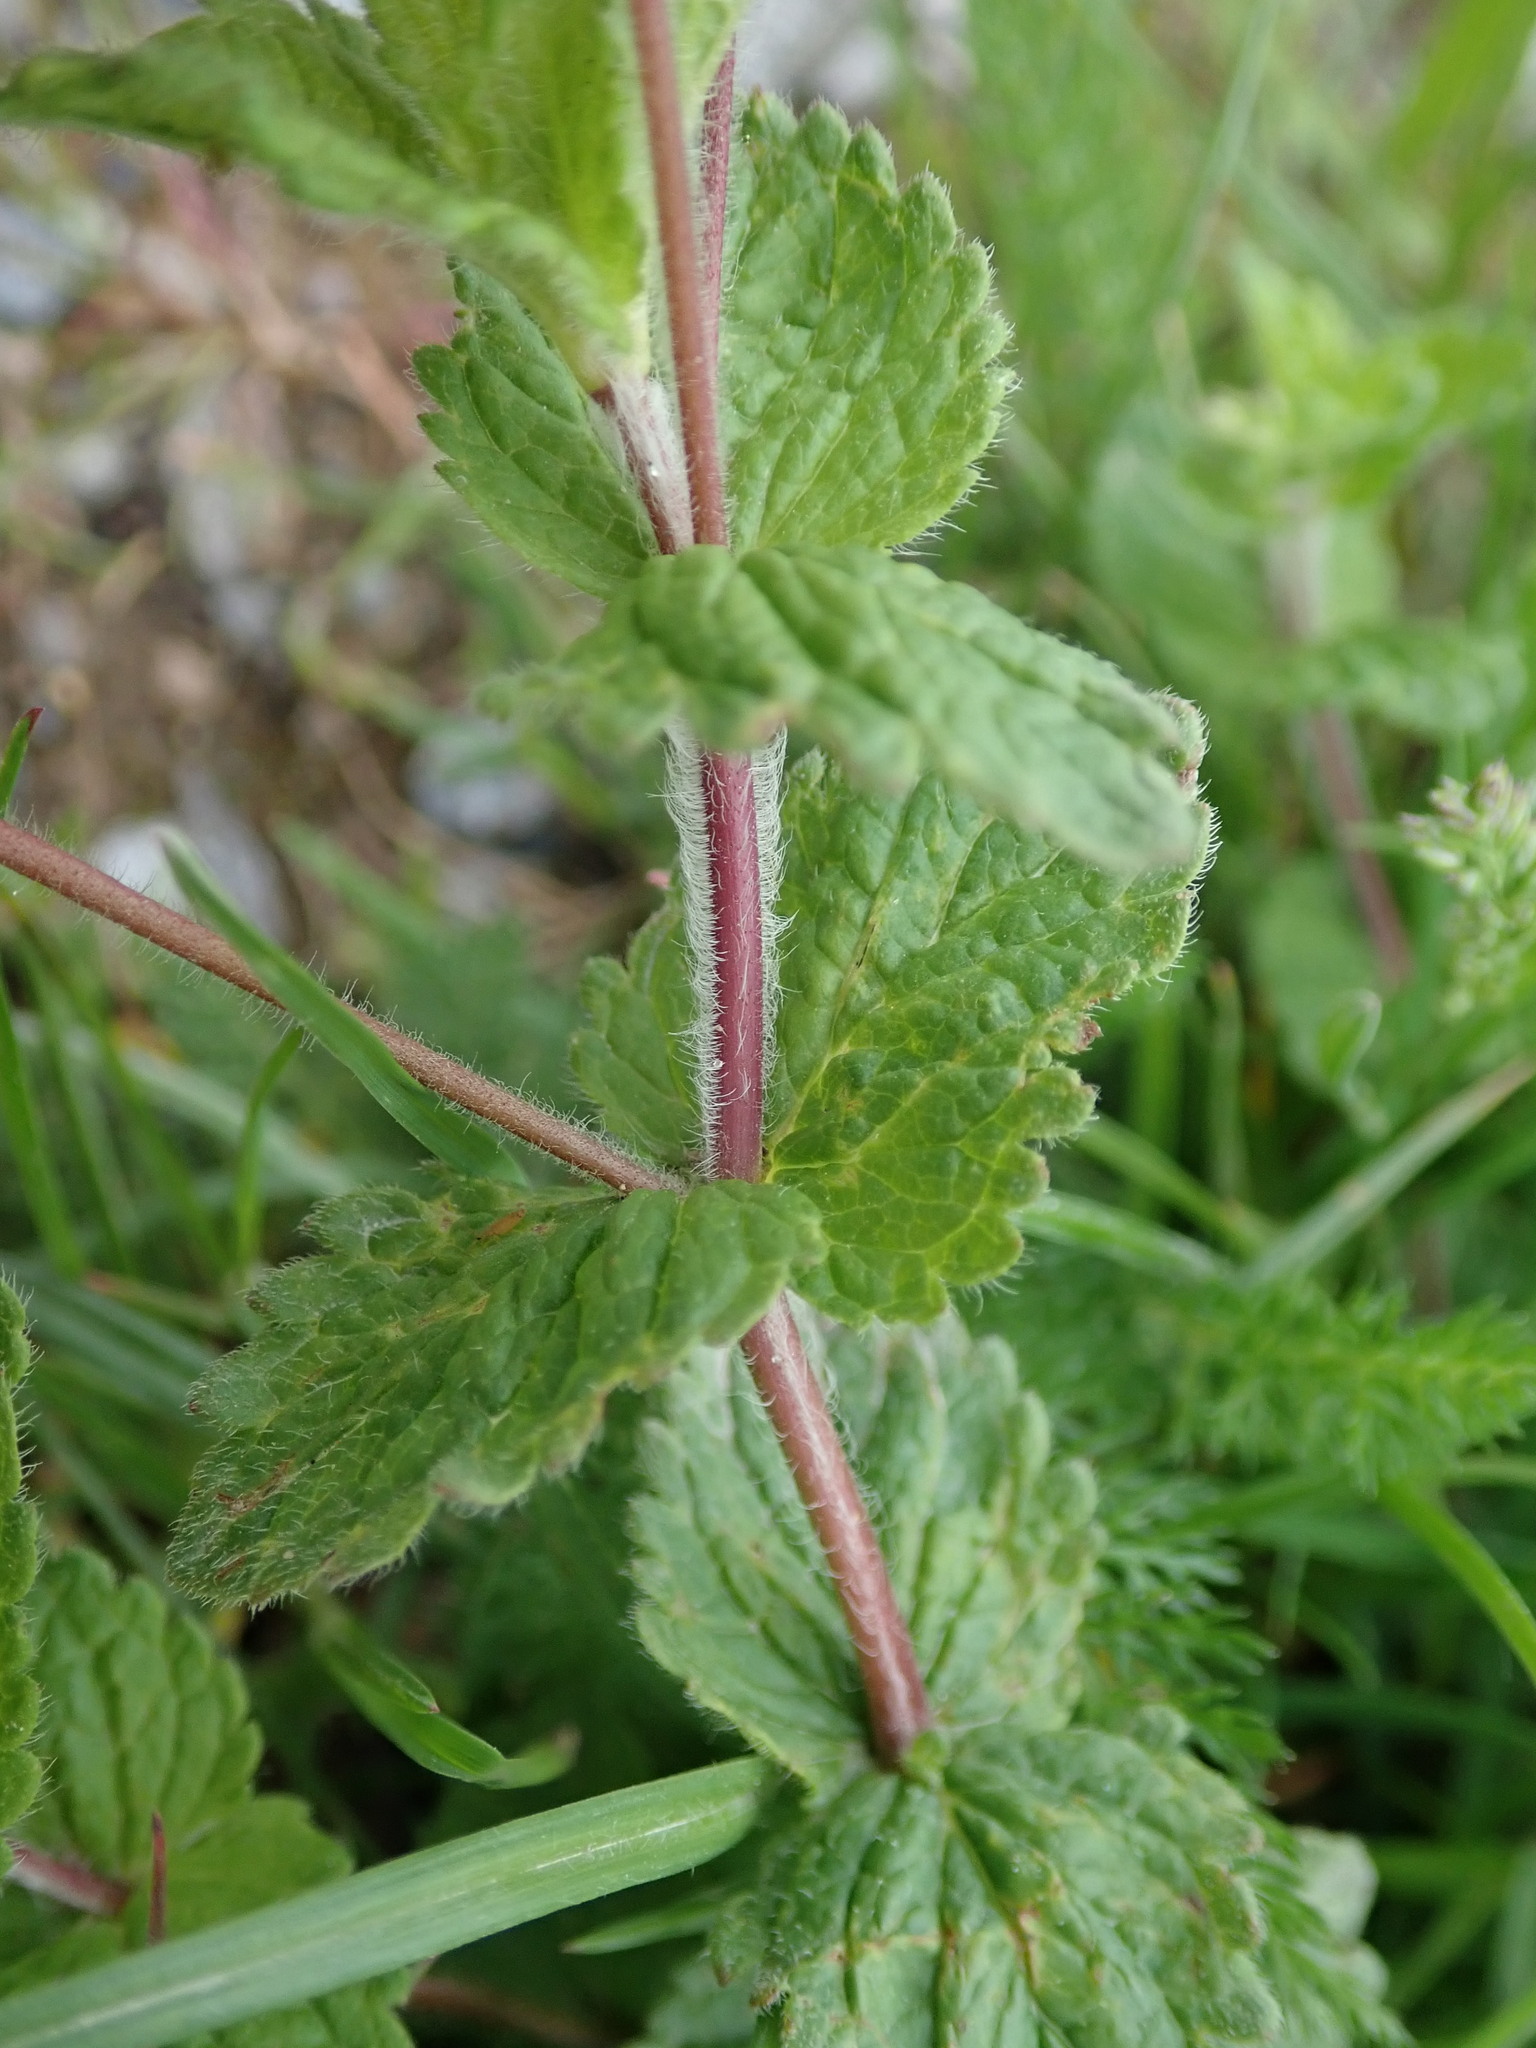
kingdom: Plantae
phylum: Tracheophyta
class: Magnoliopsida
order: Lamiales
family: Plantaginaceae
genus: Veronica
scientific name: Veronica chamaedrys
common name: Germander speedwell
